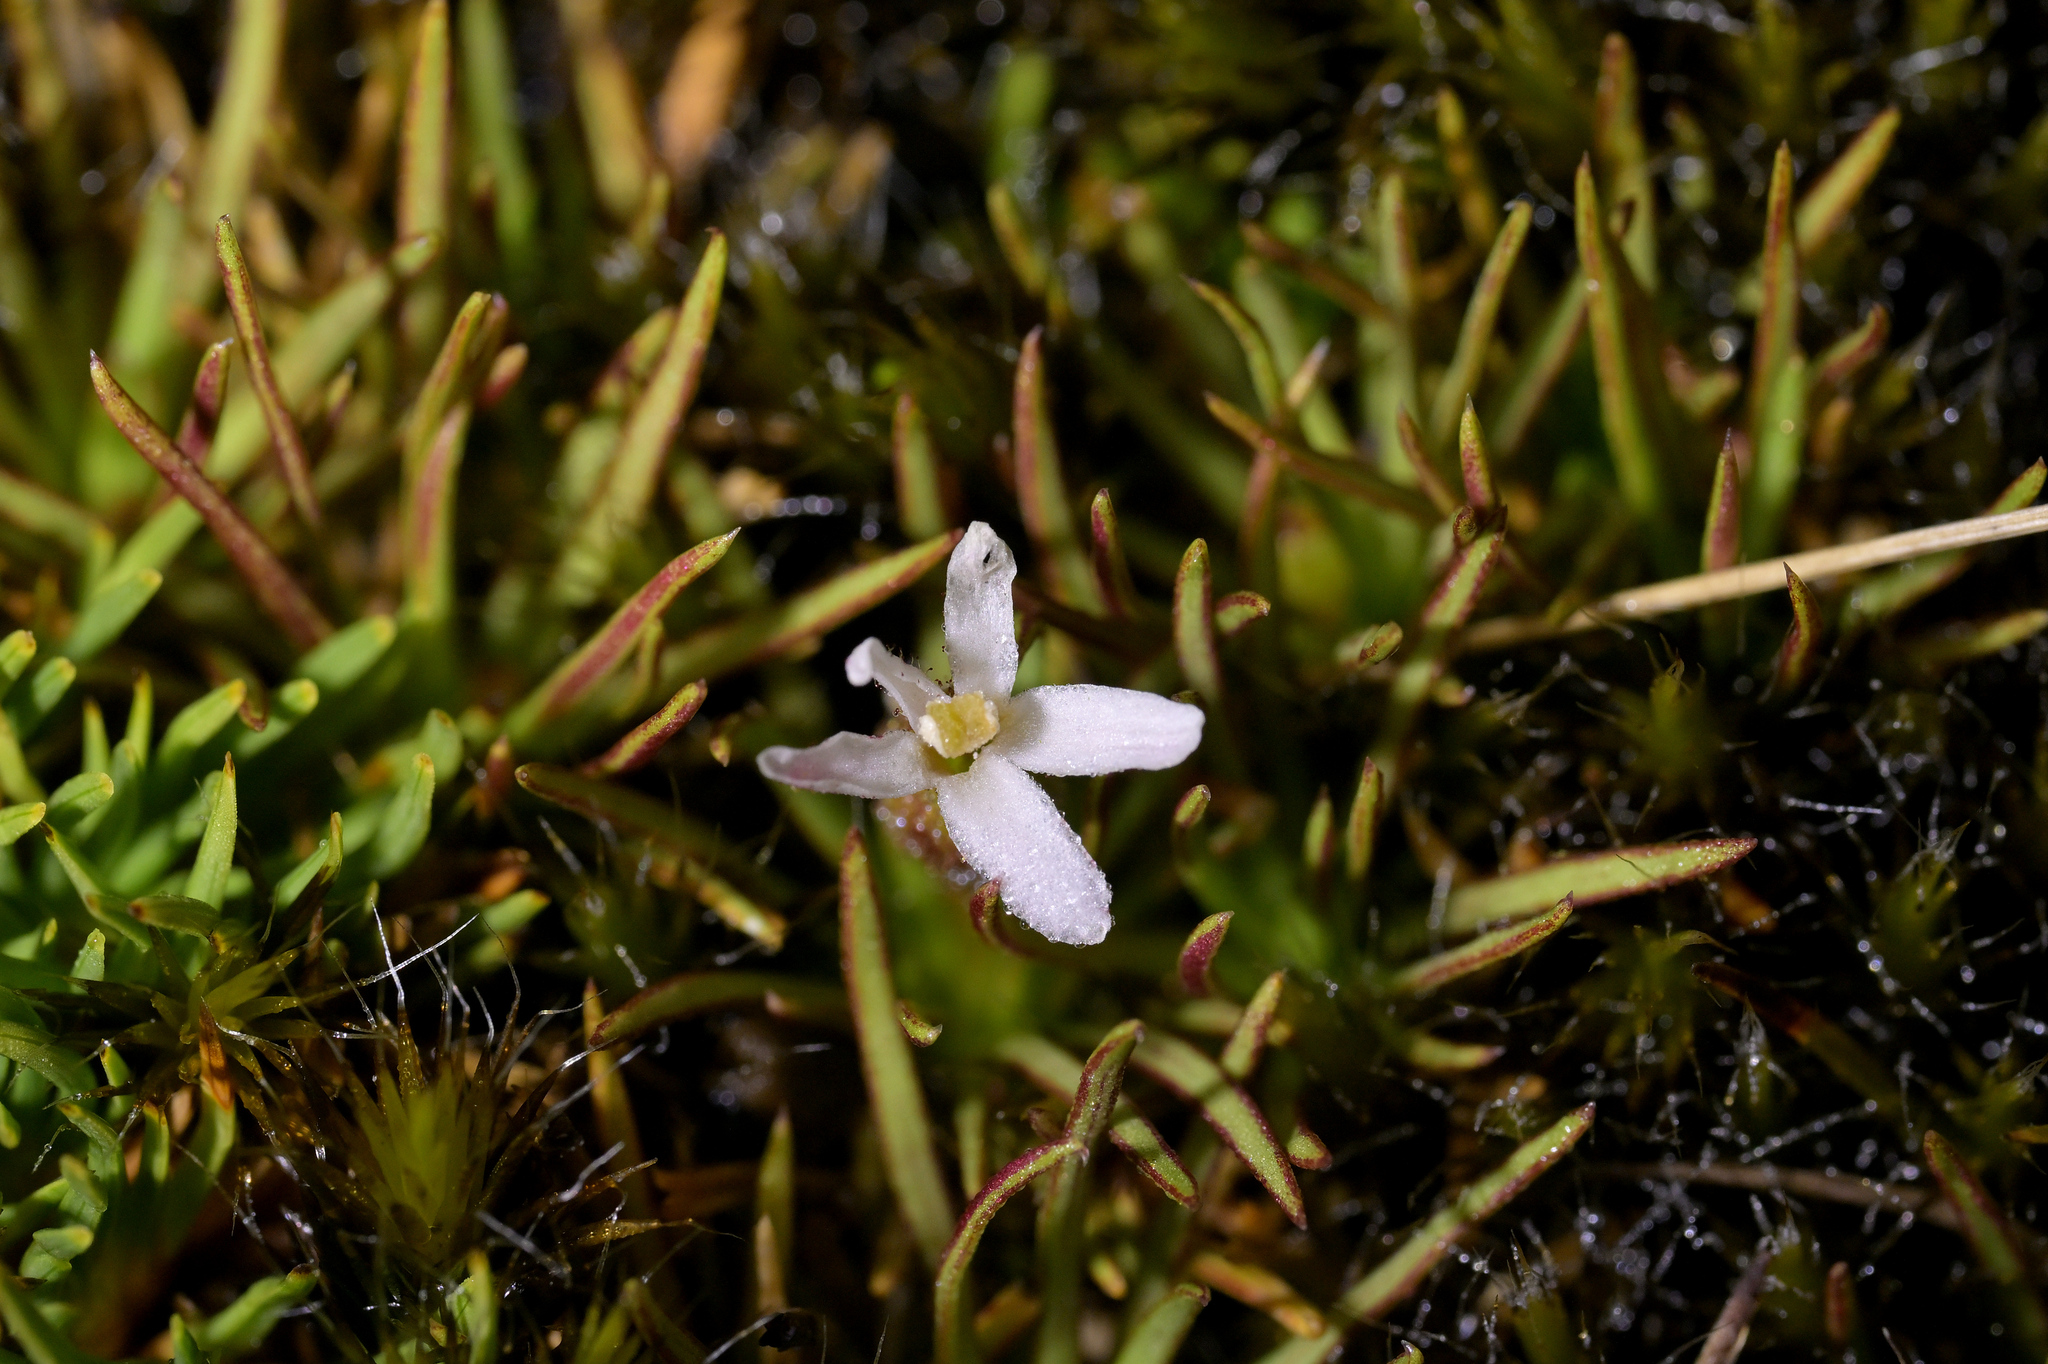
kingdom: Plantae
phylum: Tracheophyta
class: Magnoliopsida
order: Asterales
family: Stylidiaceae
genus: Oreostylidium
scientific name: Oreostylidium subulatum
